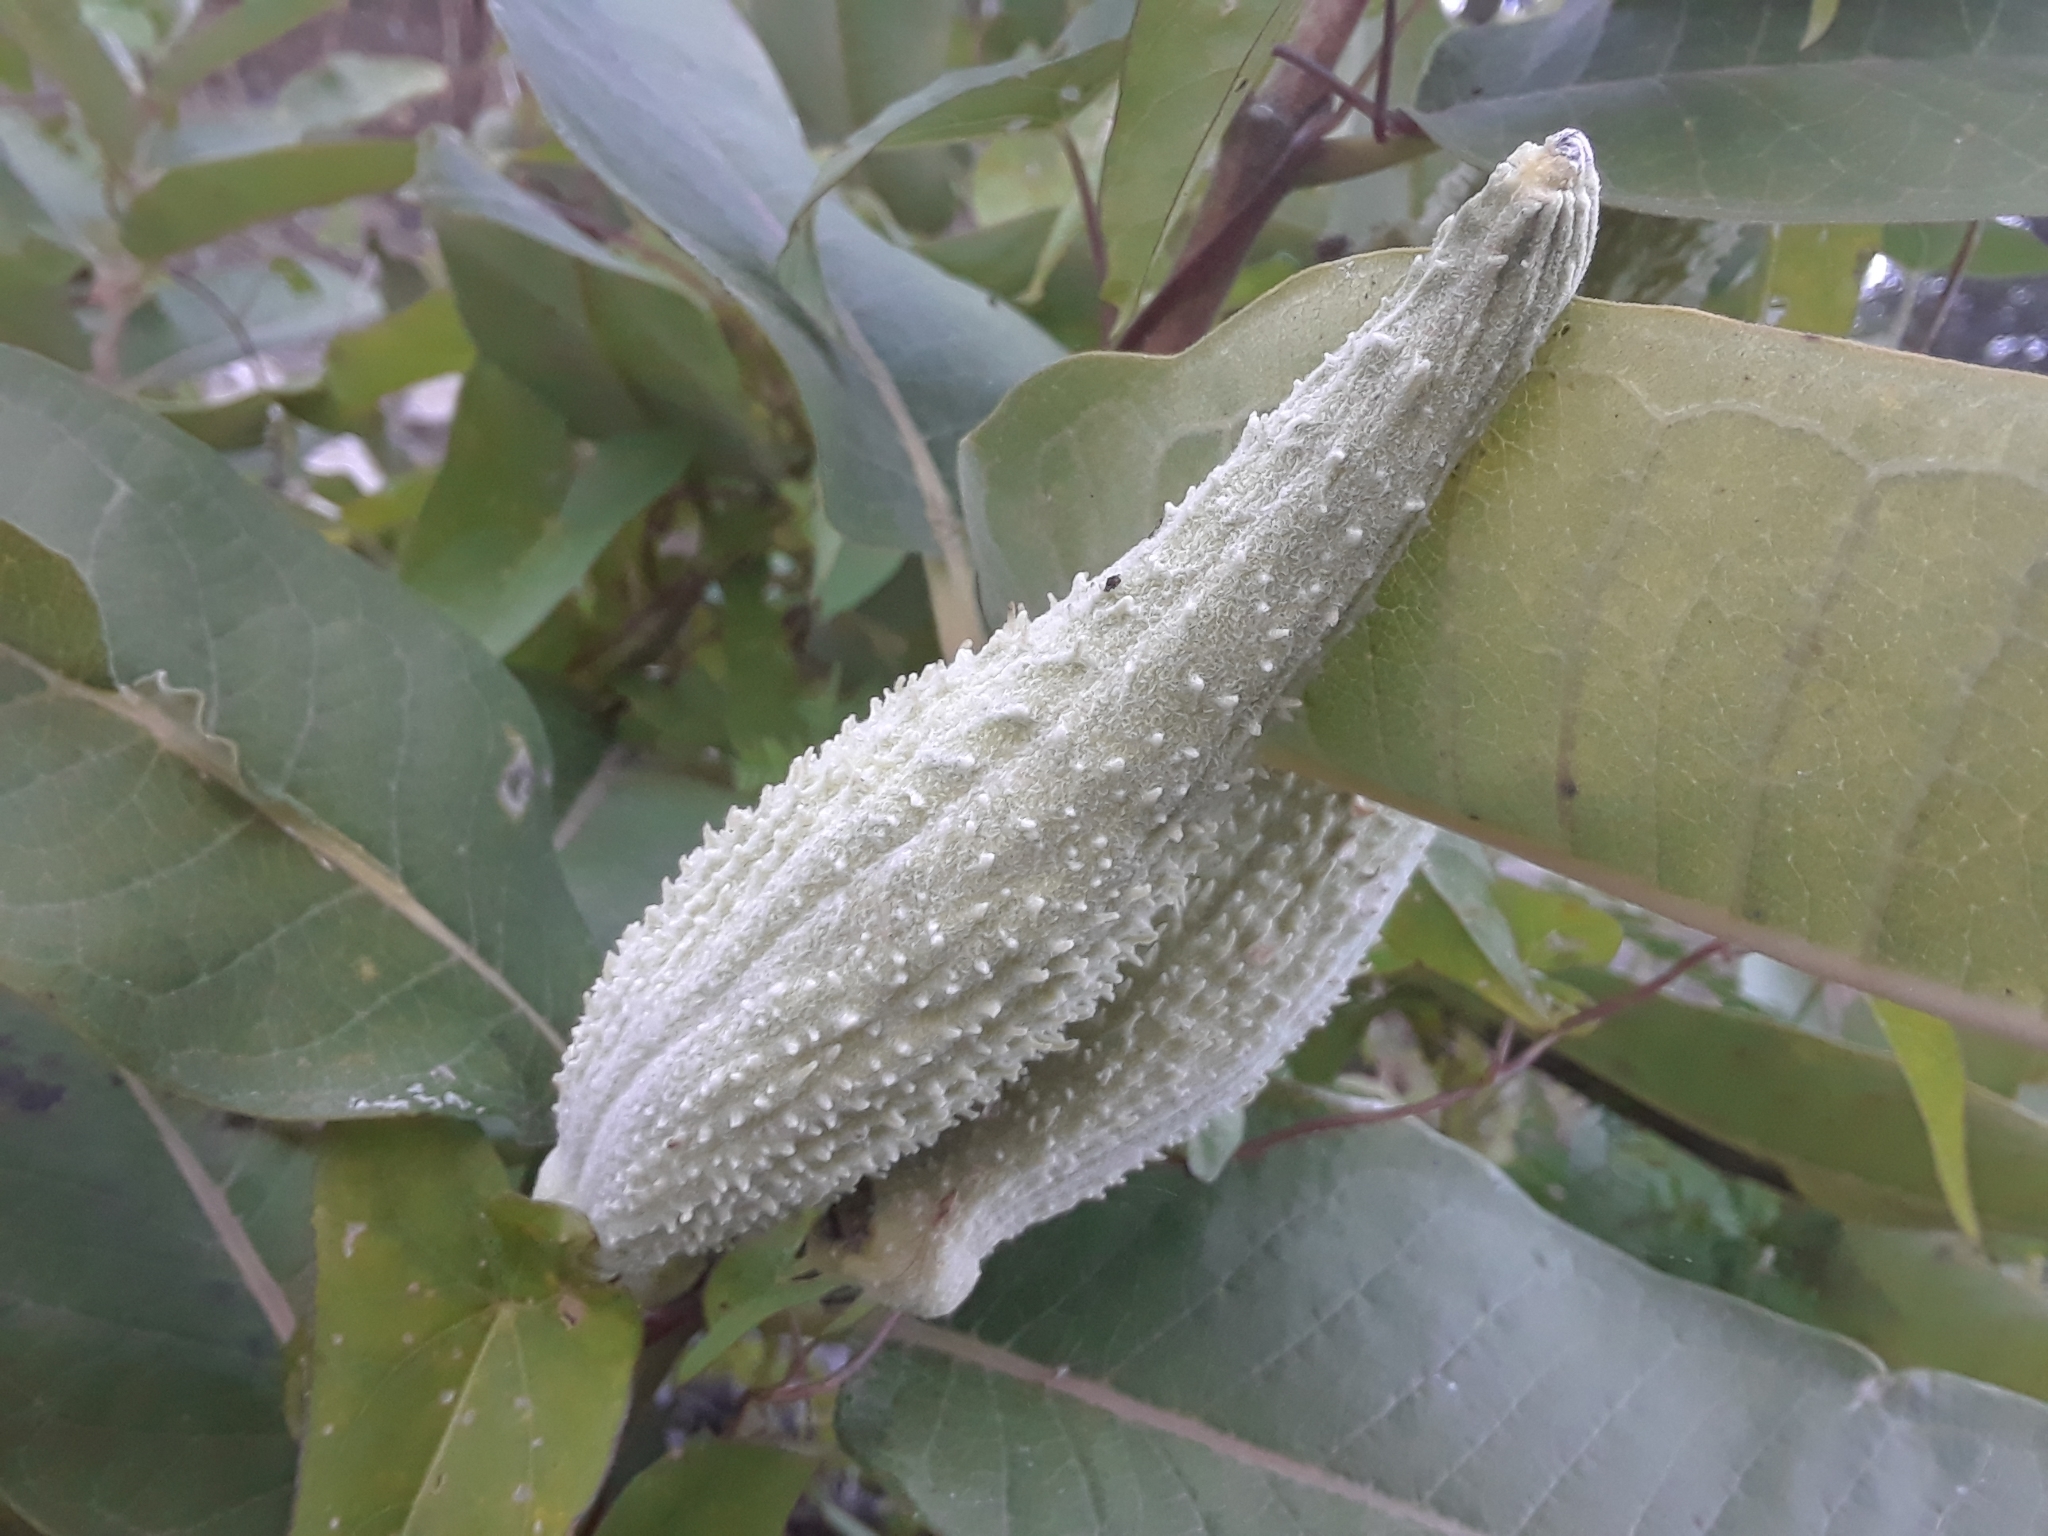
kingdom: Plantae
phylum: Tracheophyta
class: Magnoliopsida
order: Gentianales
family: Apocynaceae
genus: Asclepias
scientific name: Asclepias syriaca
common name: Common milkweed
